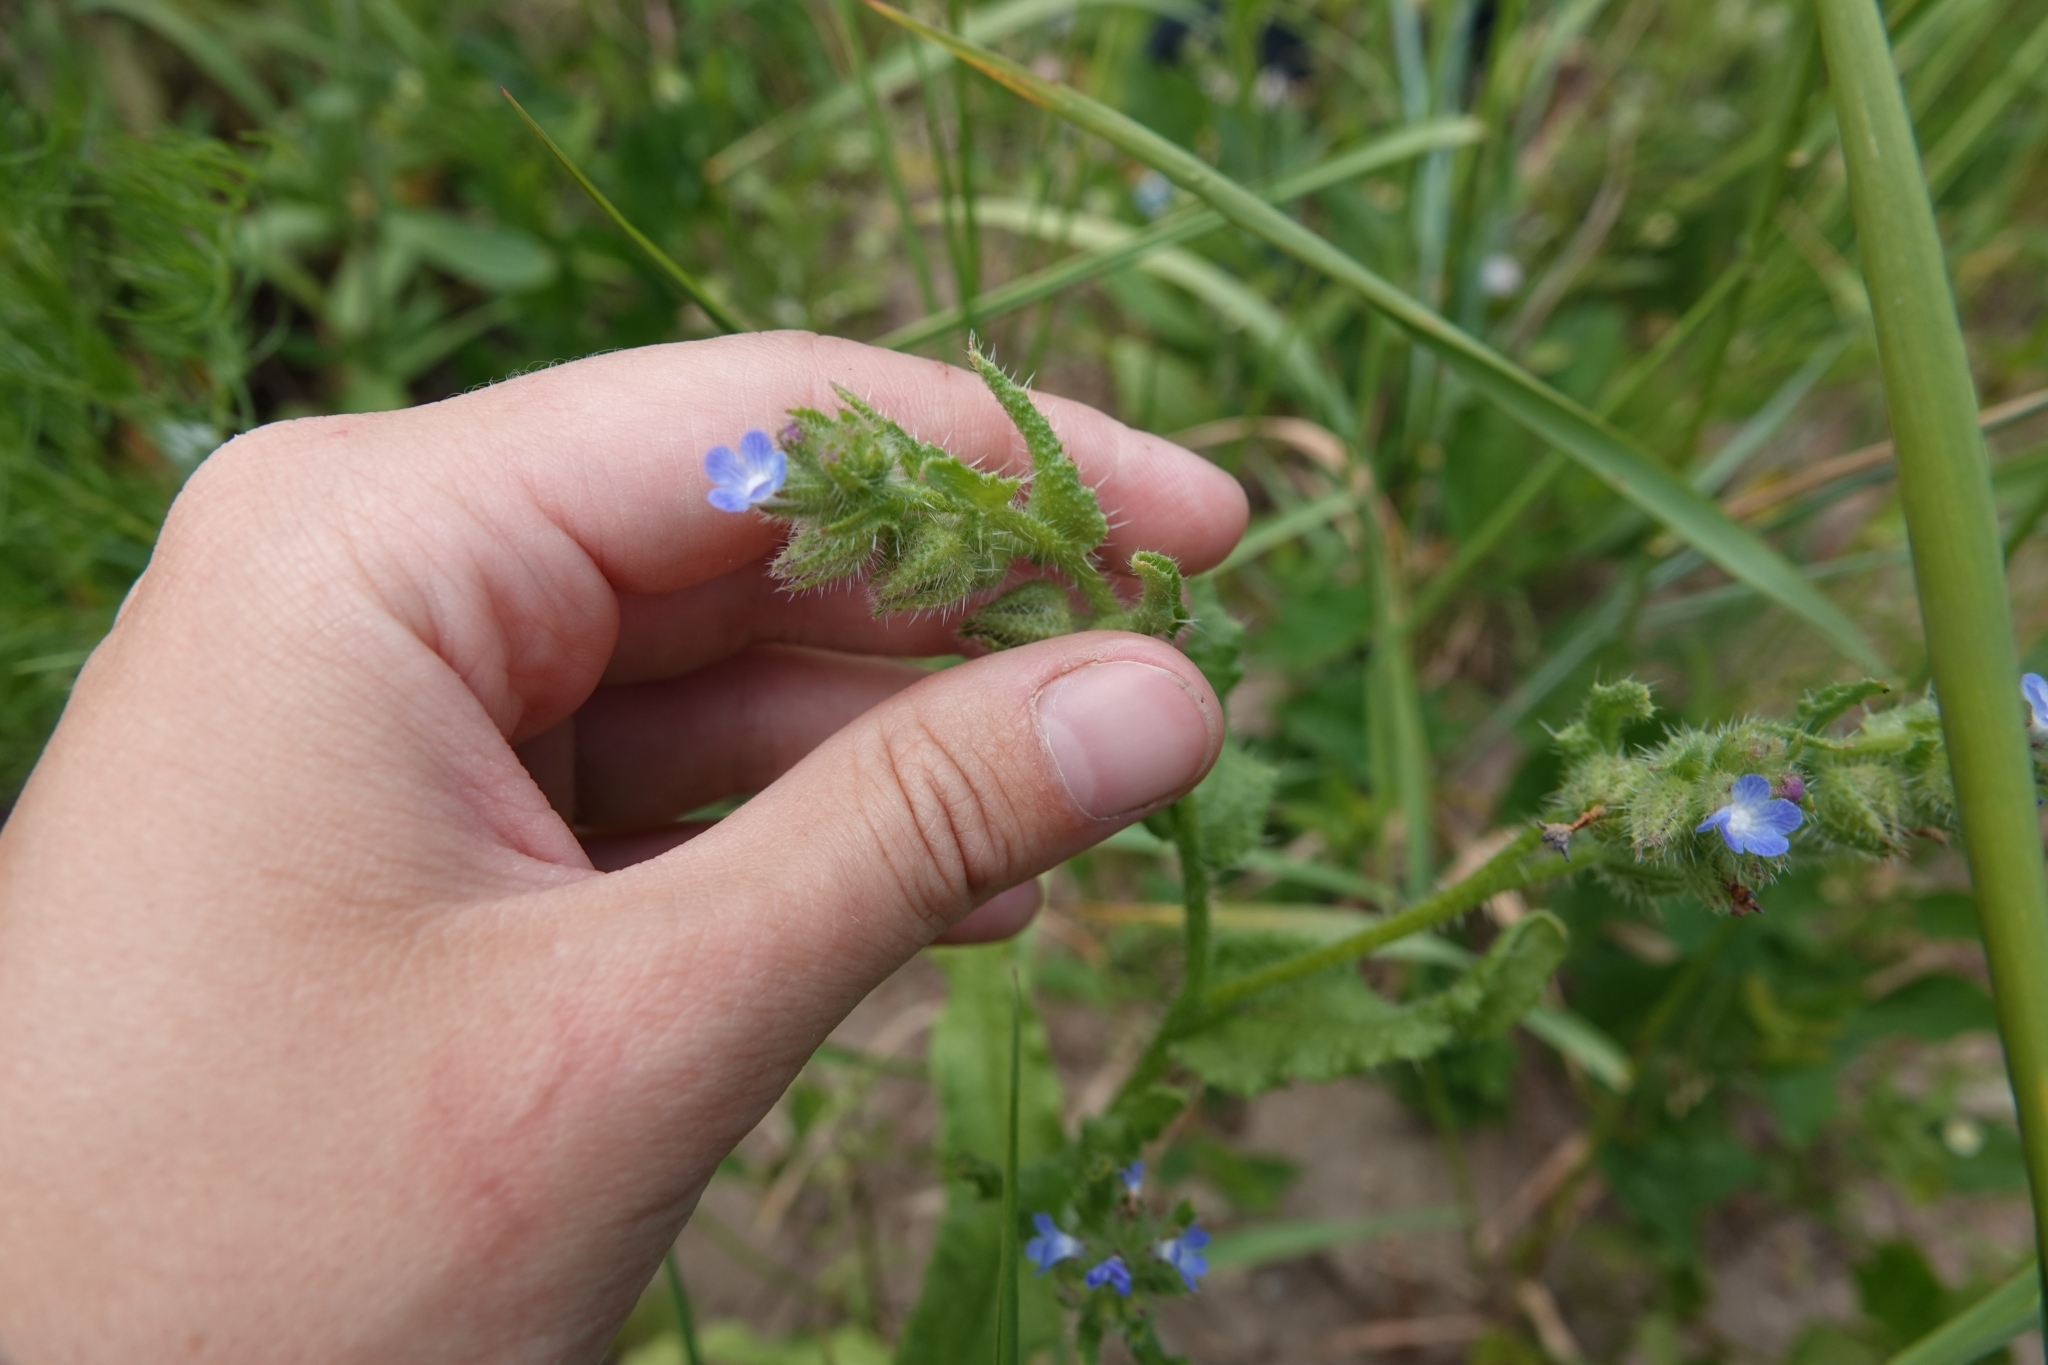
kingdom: Plantae
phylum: Tracheophyta
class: Magnoliopsida
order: Boraginales
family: Boraginaceae
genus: Lycopsis
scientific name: Lycopsis arvensis
